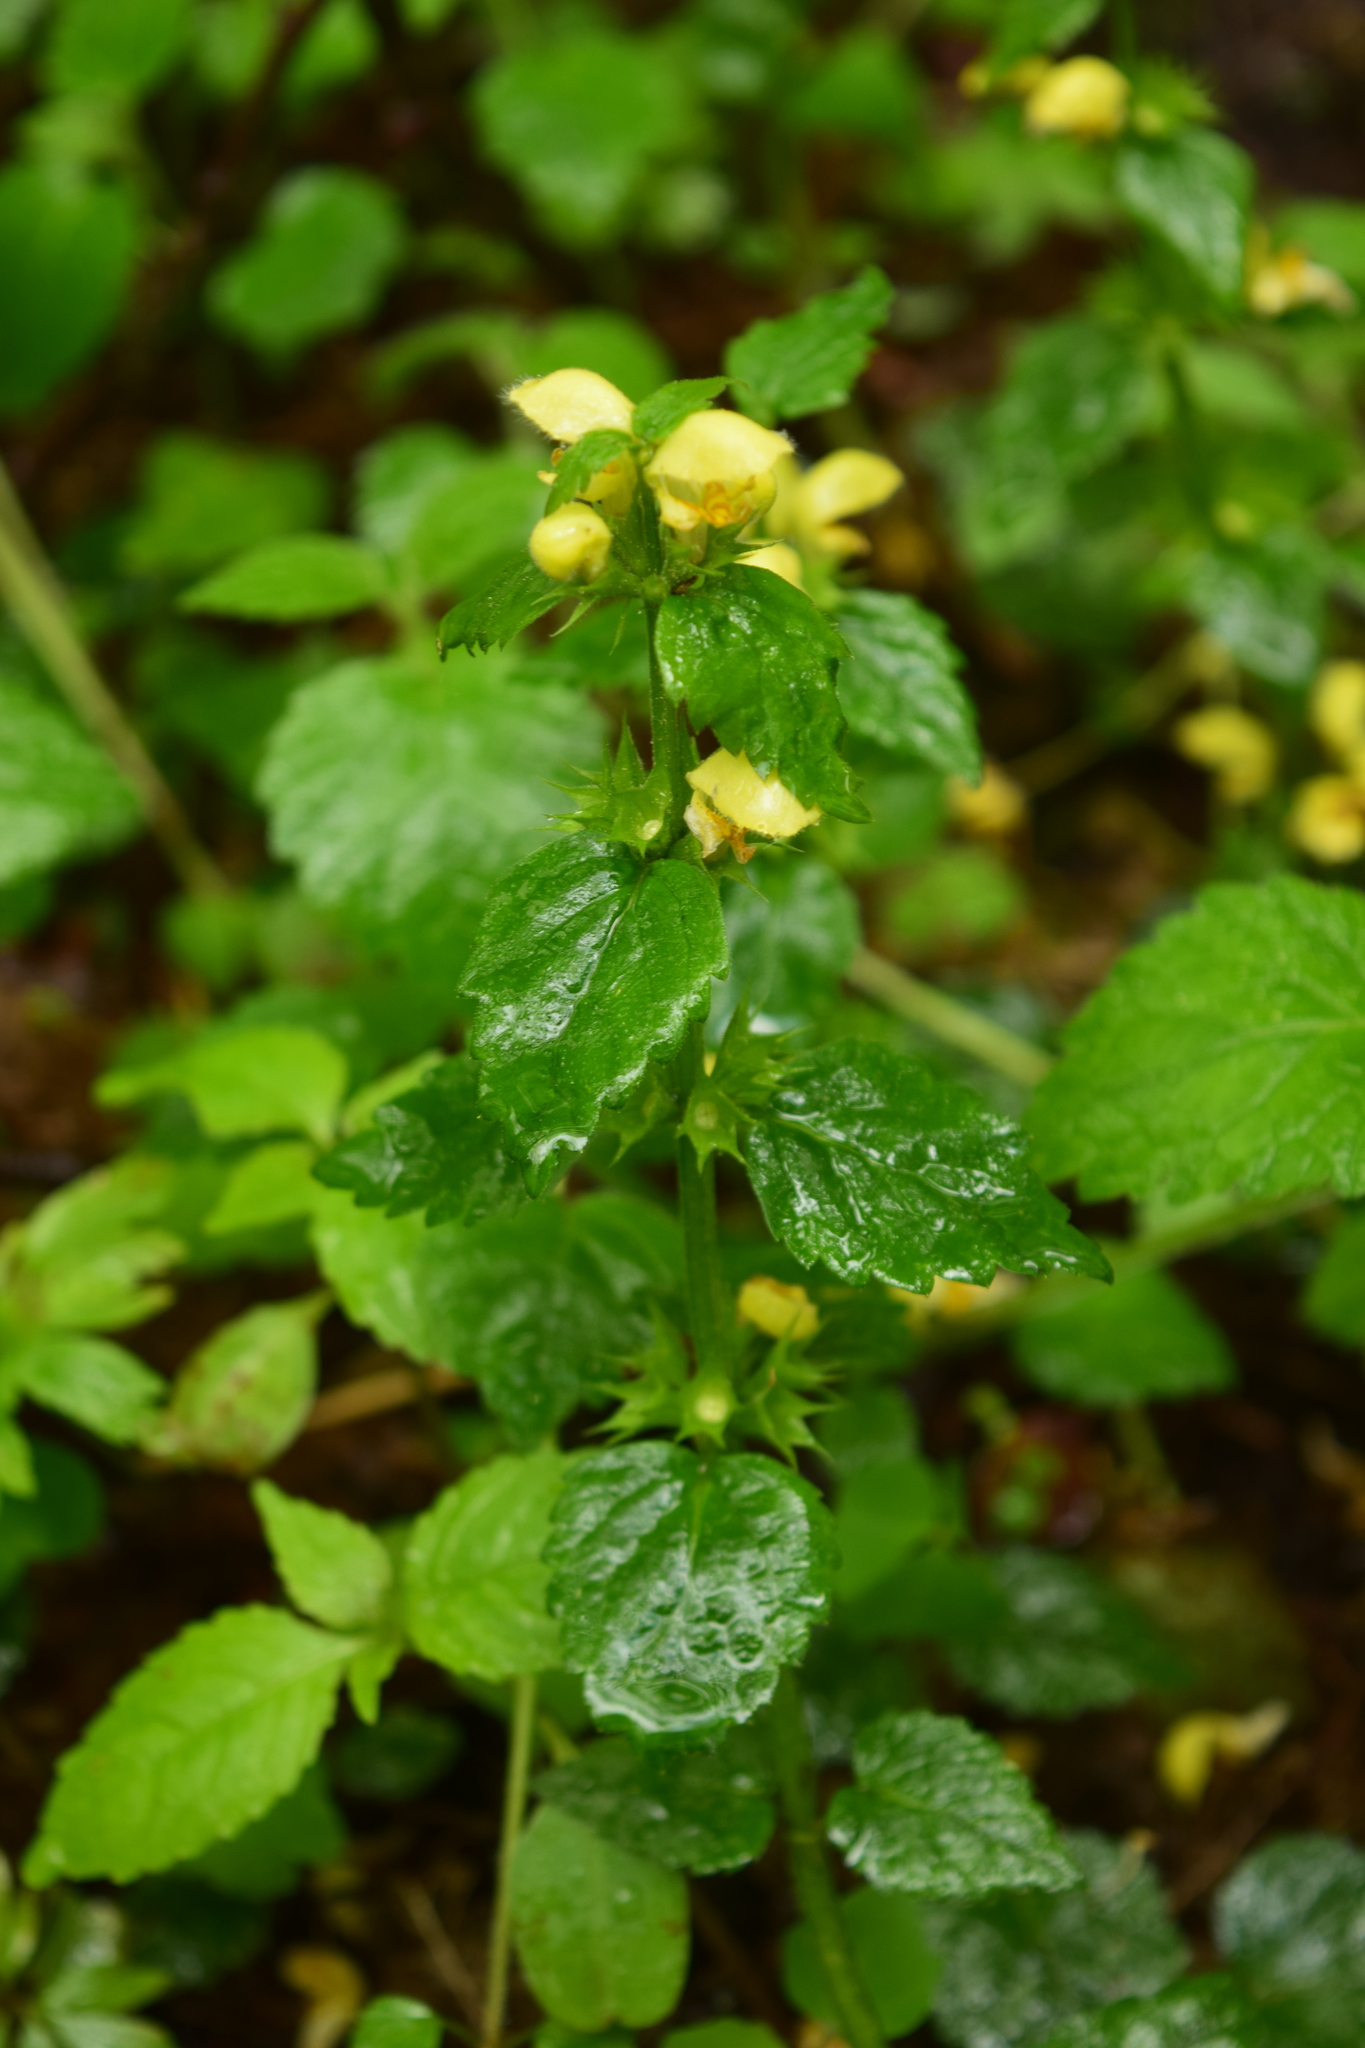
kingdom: Plantae
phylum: Tracheophyta
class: Magnoliopsida
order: Lamiales
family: Lamiaceae
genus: Lamium
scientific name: Lamium galeobdolon
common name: Yellow archangel
